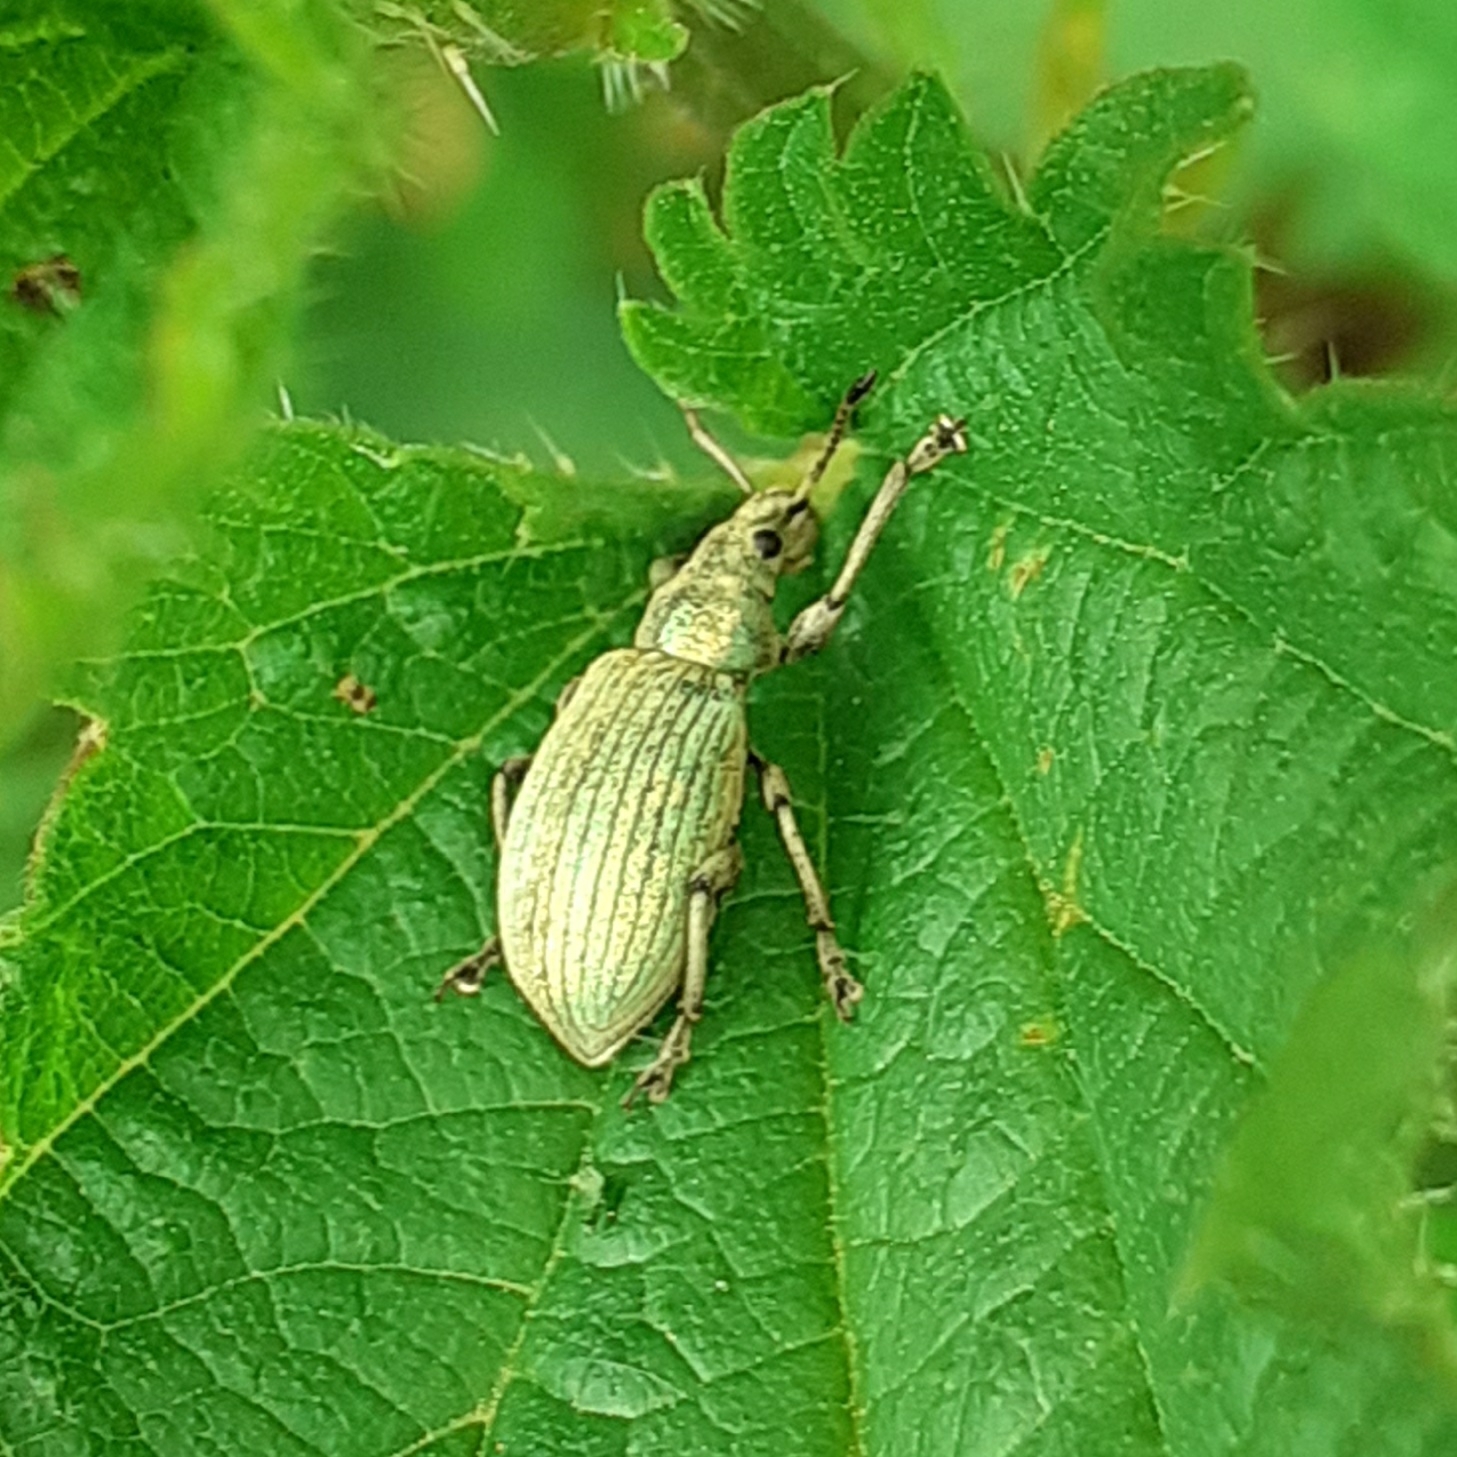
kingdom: Animalia
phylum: Arthropoda
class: Insecta
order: Coleoptera
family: Curculionidae
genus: Phyllobius
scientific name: Phyllobius pomaceus
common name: Green nettle weevil
